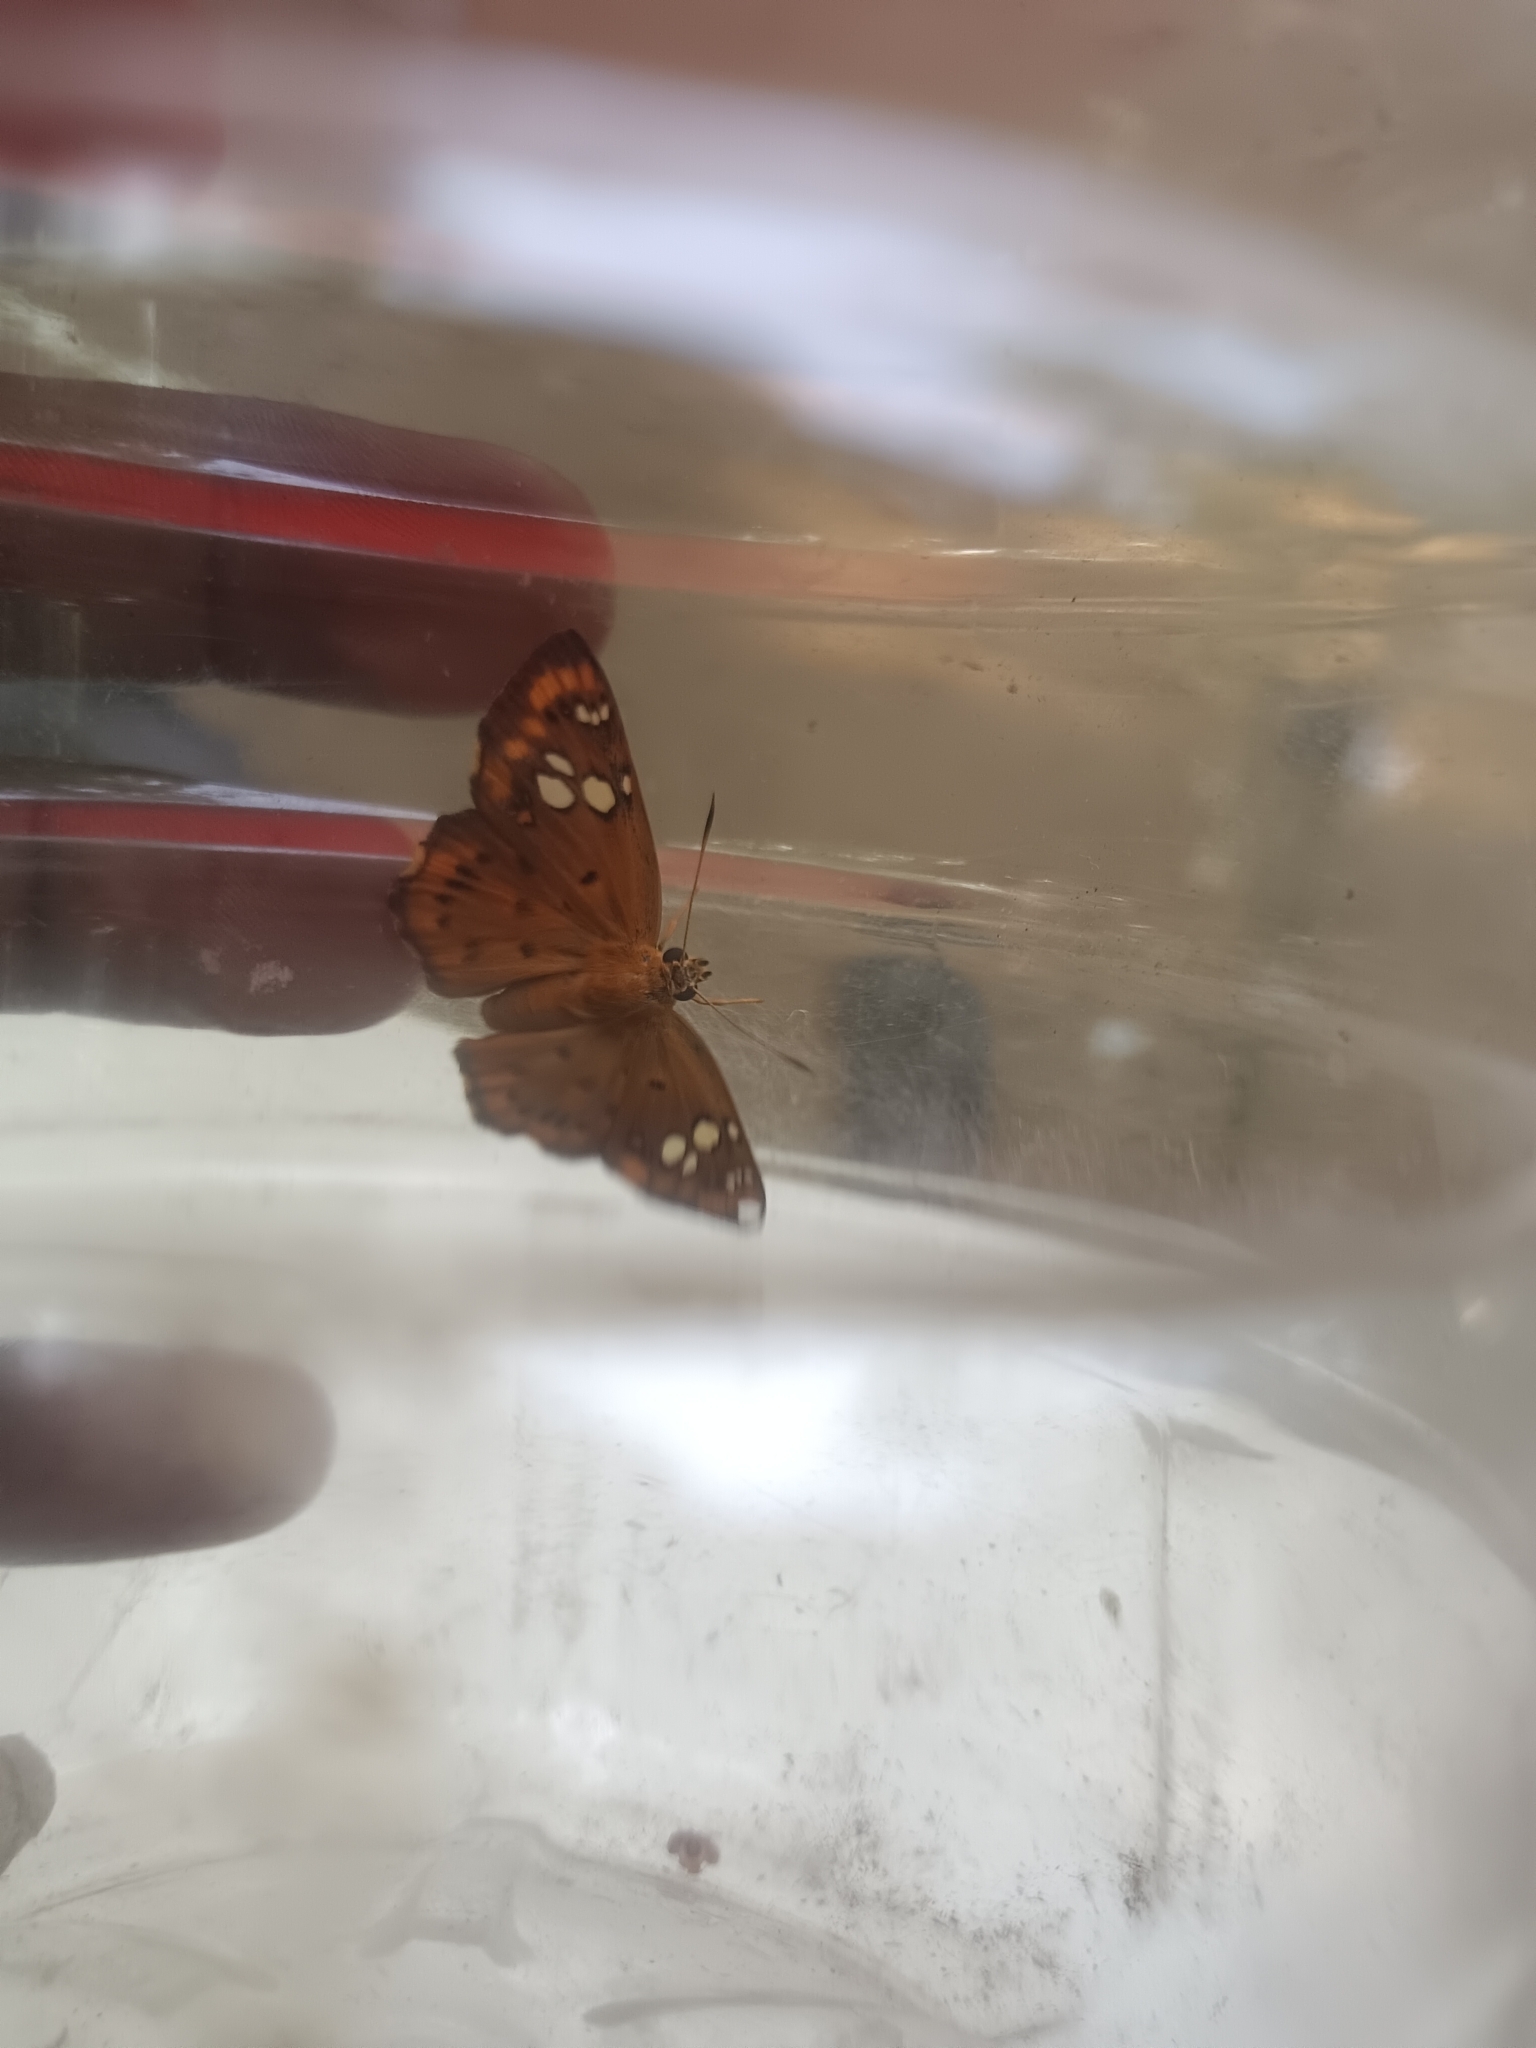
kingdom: Animalia
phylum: Arthropoda
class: Insecta
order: Lepidoptera
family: Hesperiidae
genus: Coladenia
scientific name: Coladenia
